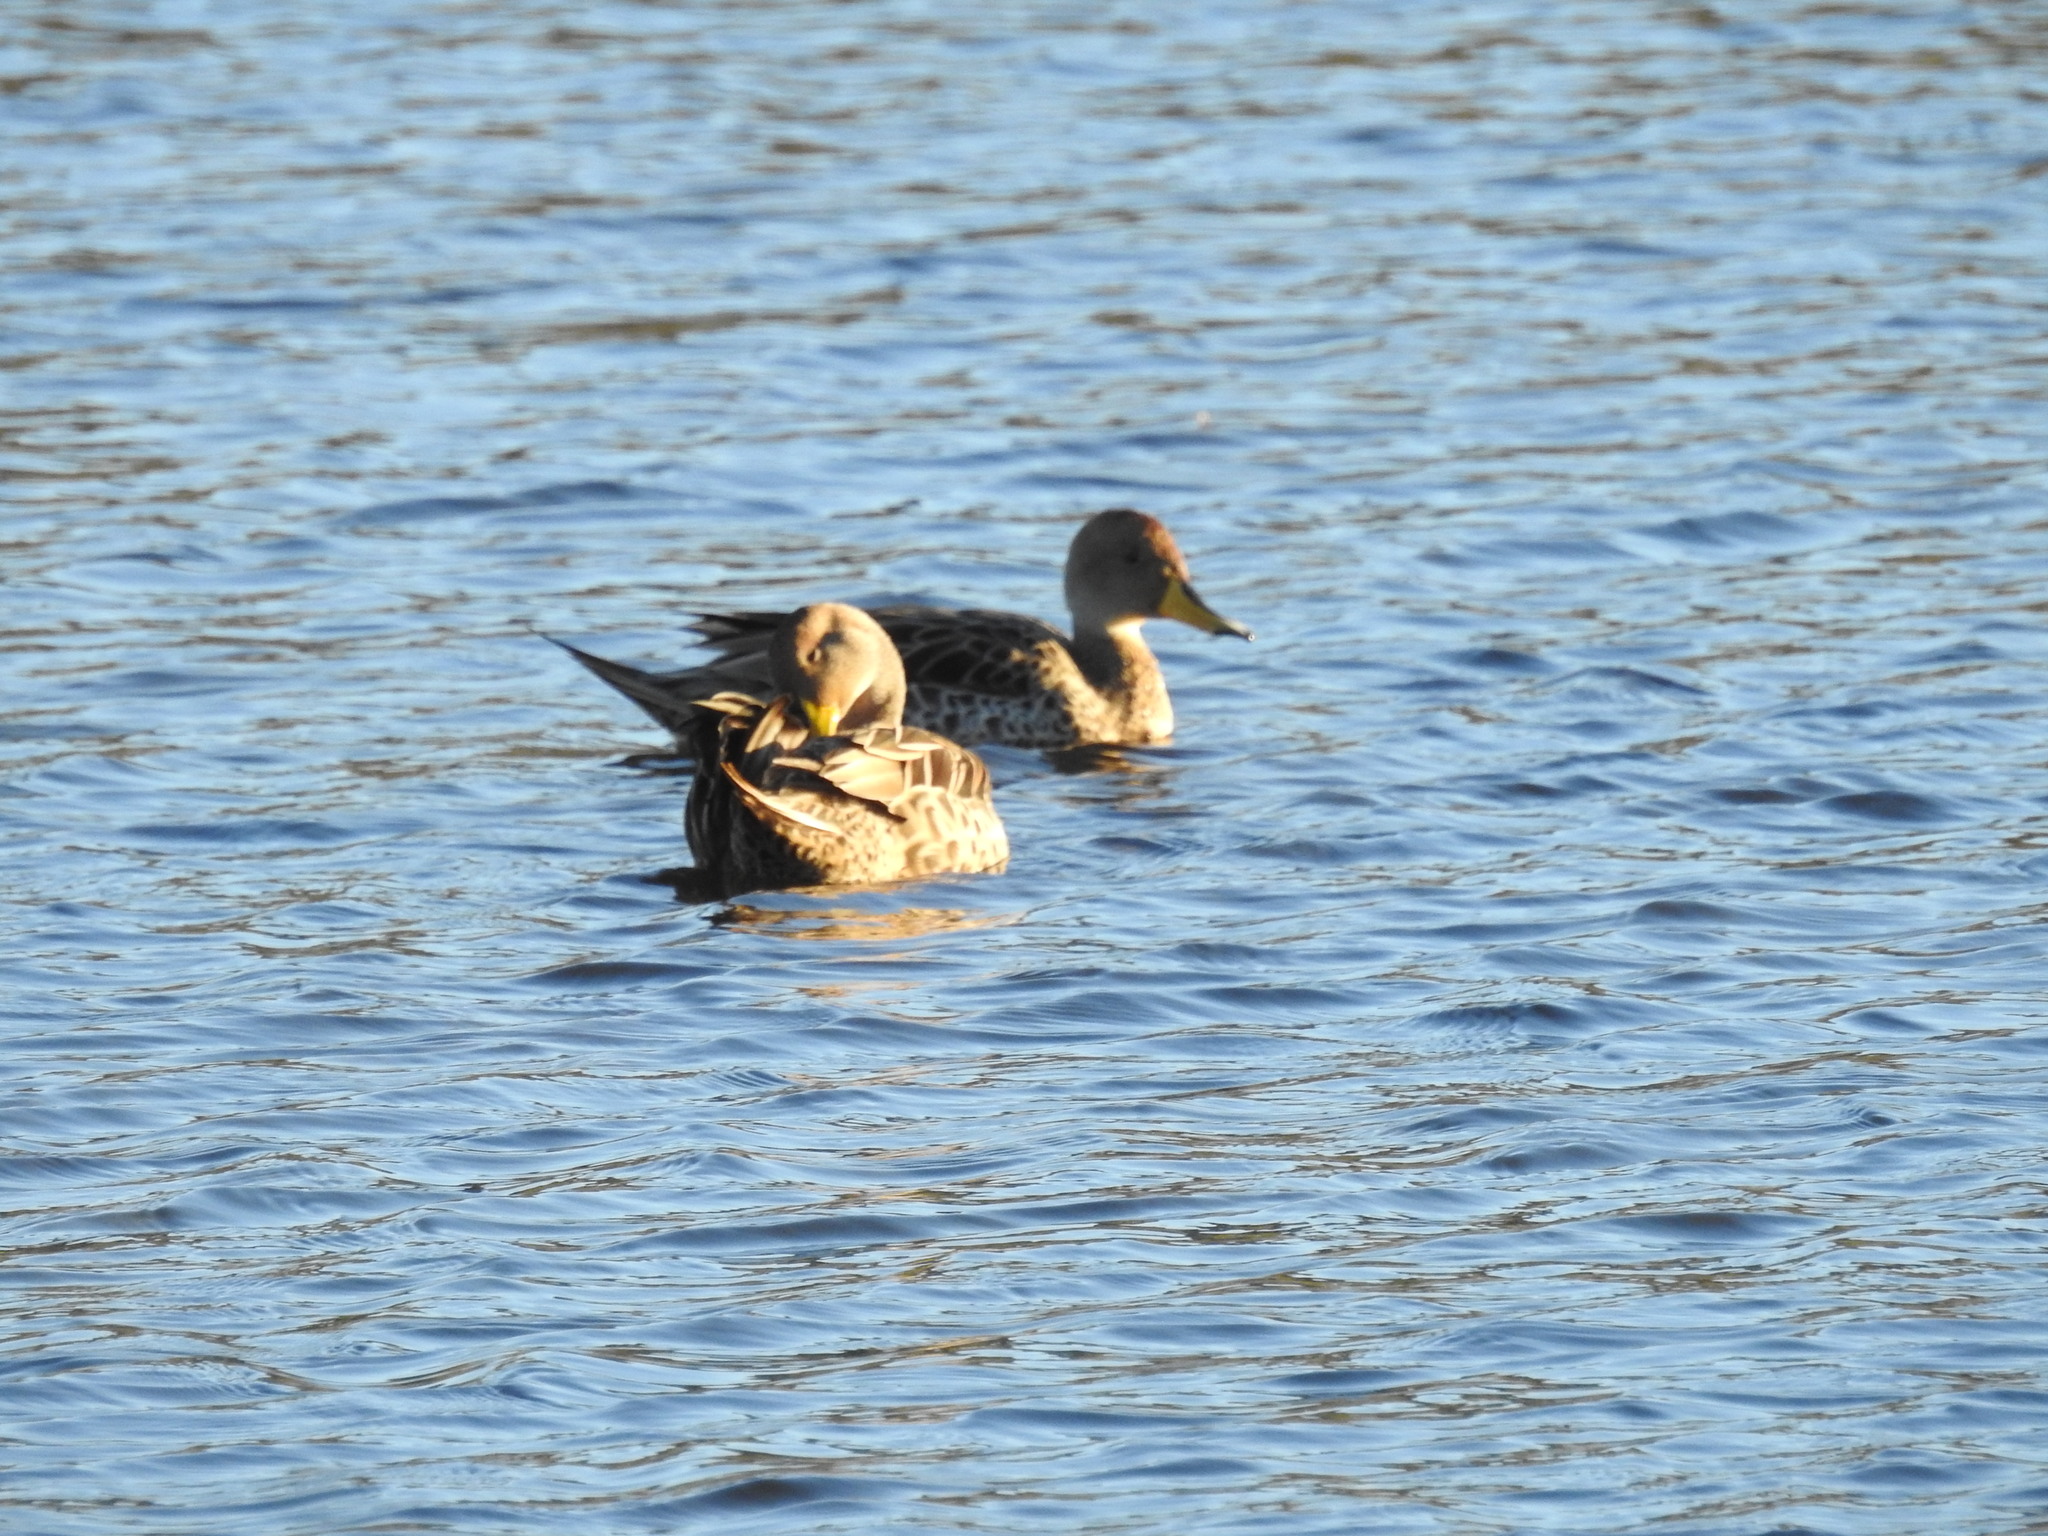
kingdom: Animalia
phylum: Chordata
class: Aves
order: Anseriformes
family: Anatidae
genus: Anas
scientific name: Anas georgica
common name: Yellow-billed pintail
